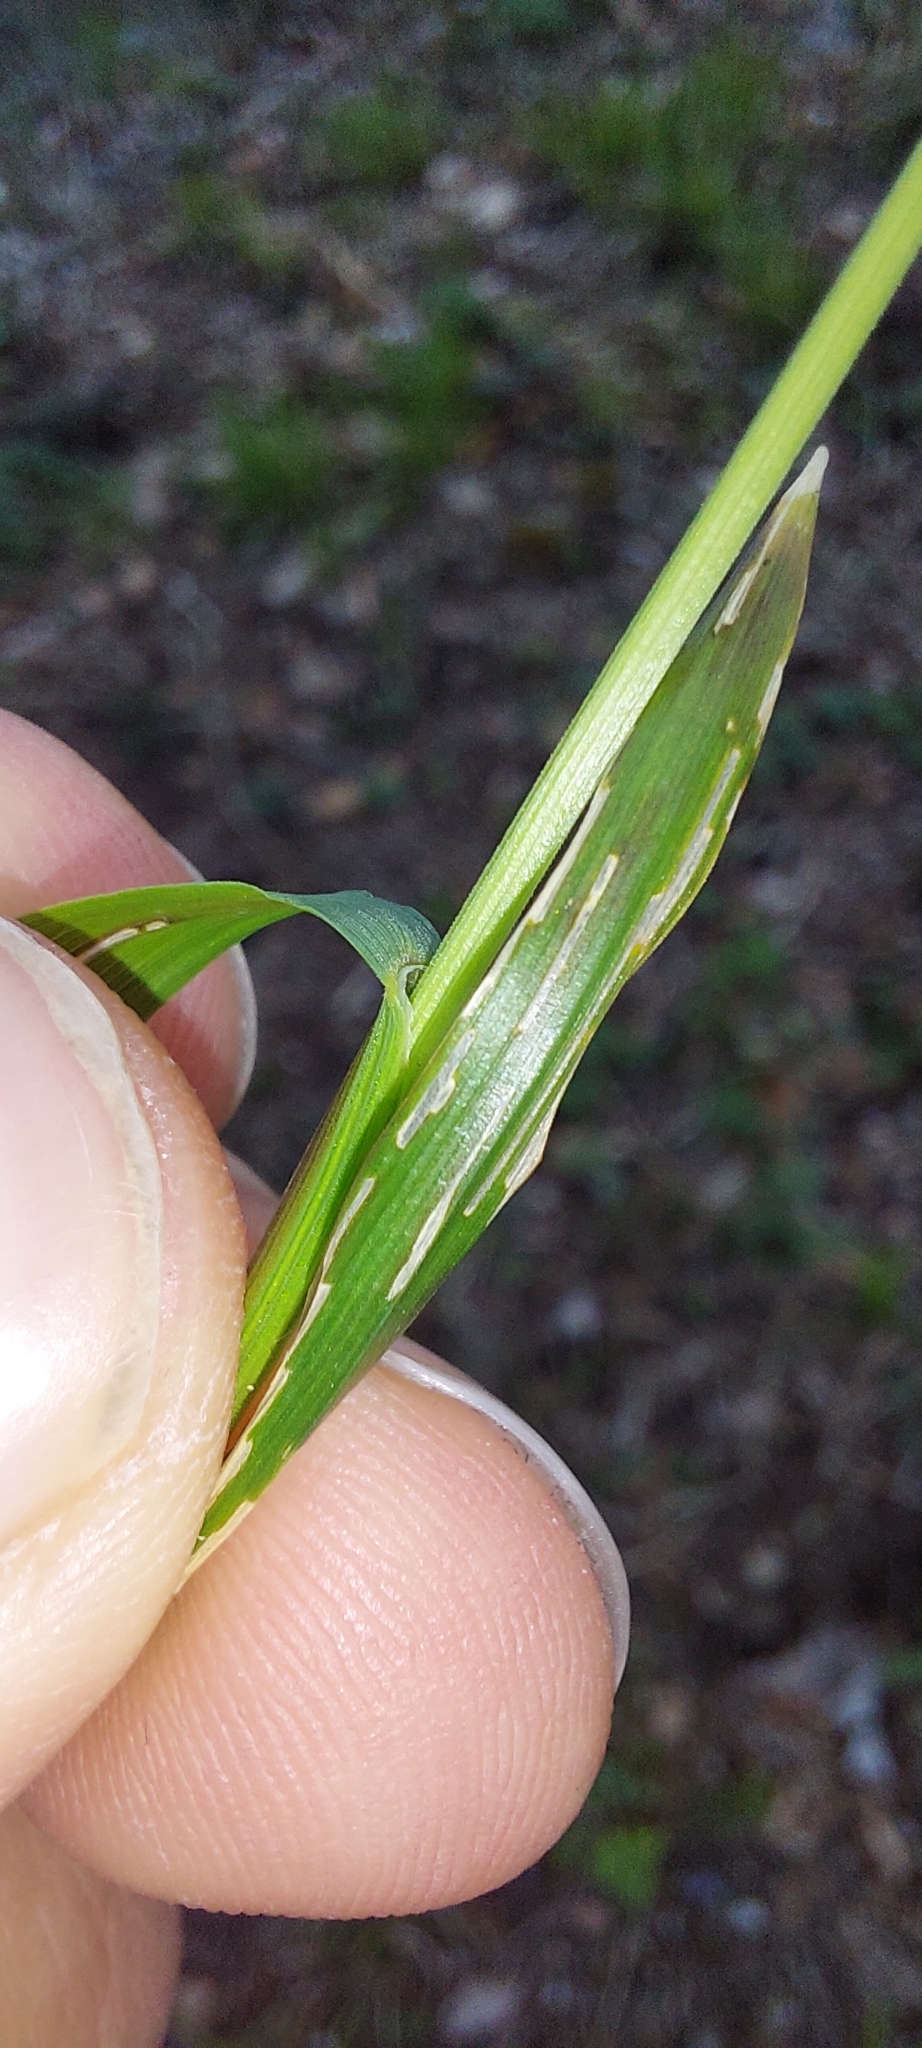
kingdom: Plantae
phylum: Tracheophyta
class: Liliopsida
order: Poales
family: Poaceae
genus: Melica
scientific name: Melica nutans
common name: Mountain melick
